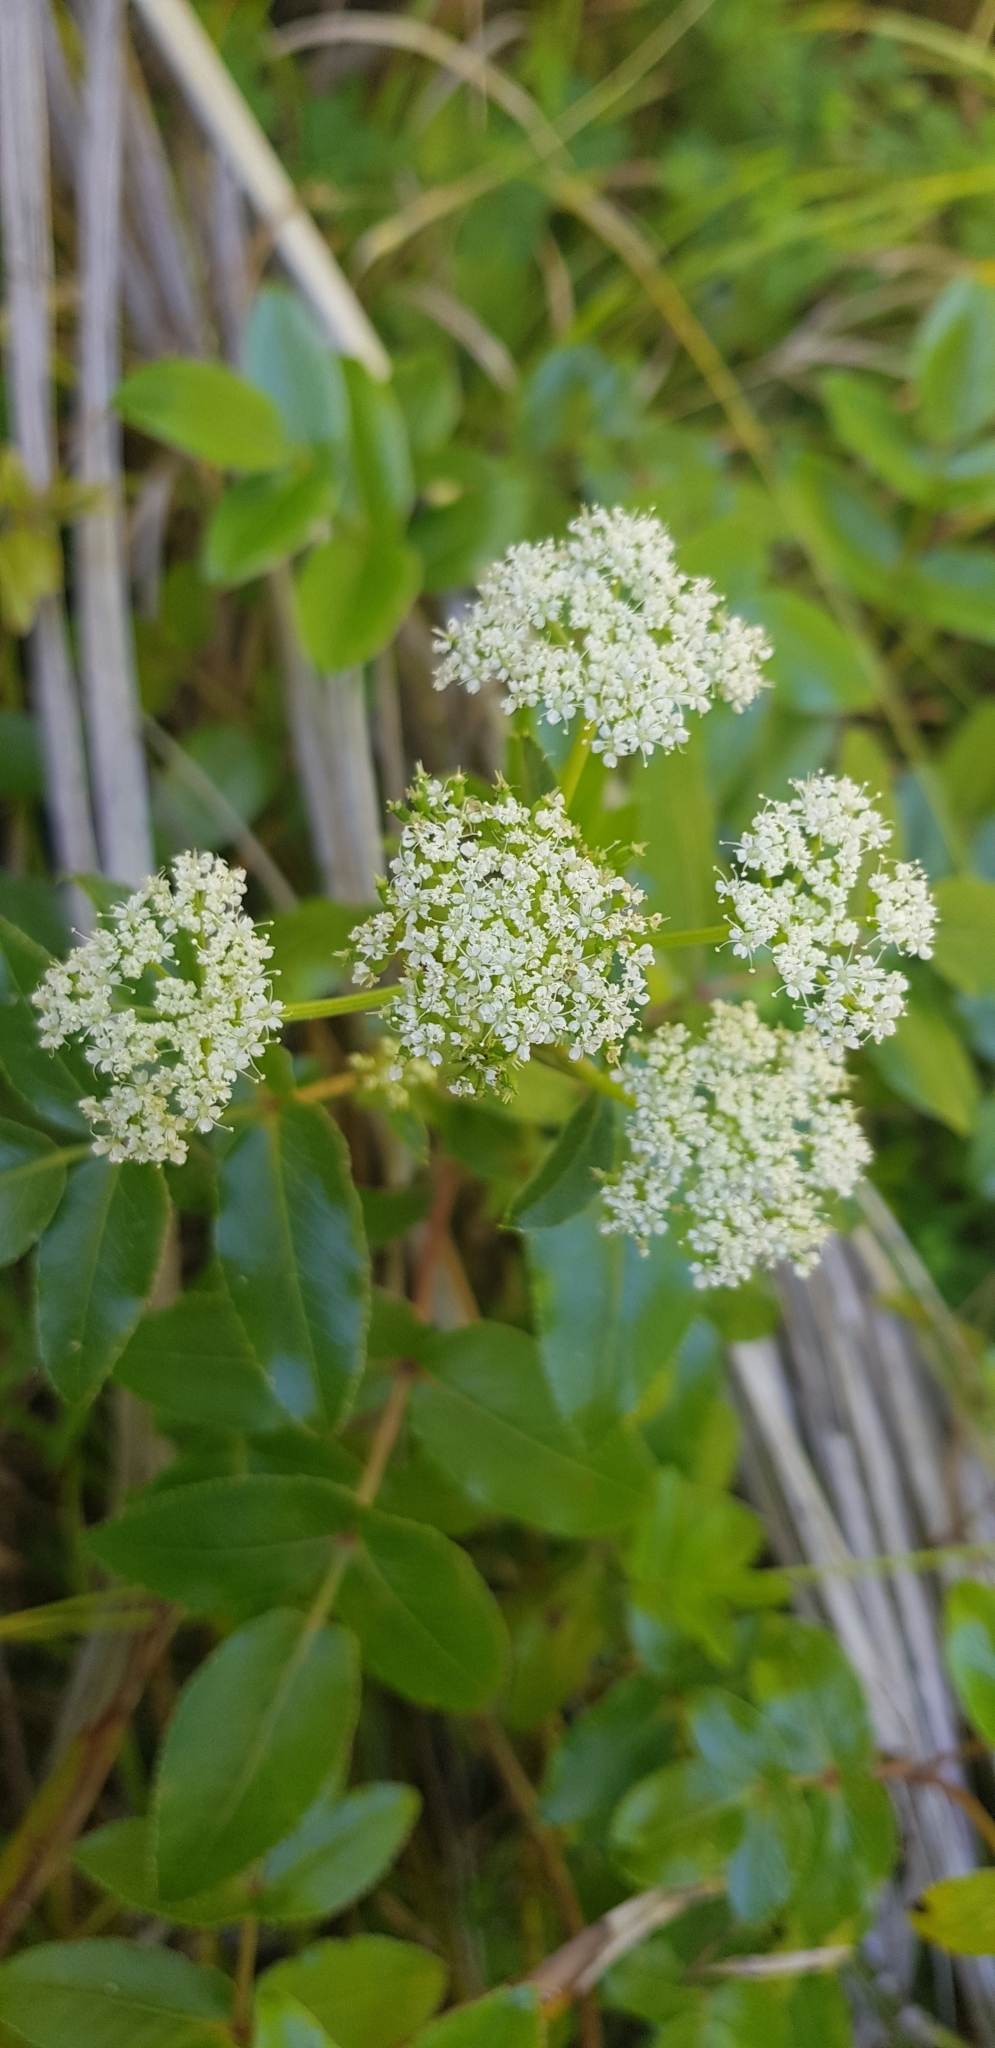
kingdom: Plantae
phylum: Tracheophyta
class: Magnoliopsida
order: Apiales
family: Apiaceae
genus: Scandia
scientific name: Scandia rosifolia
